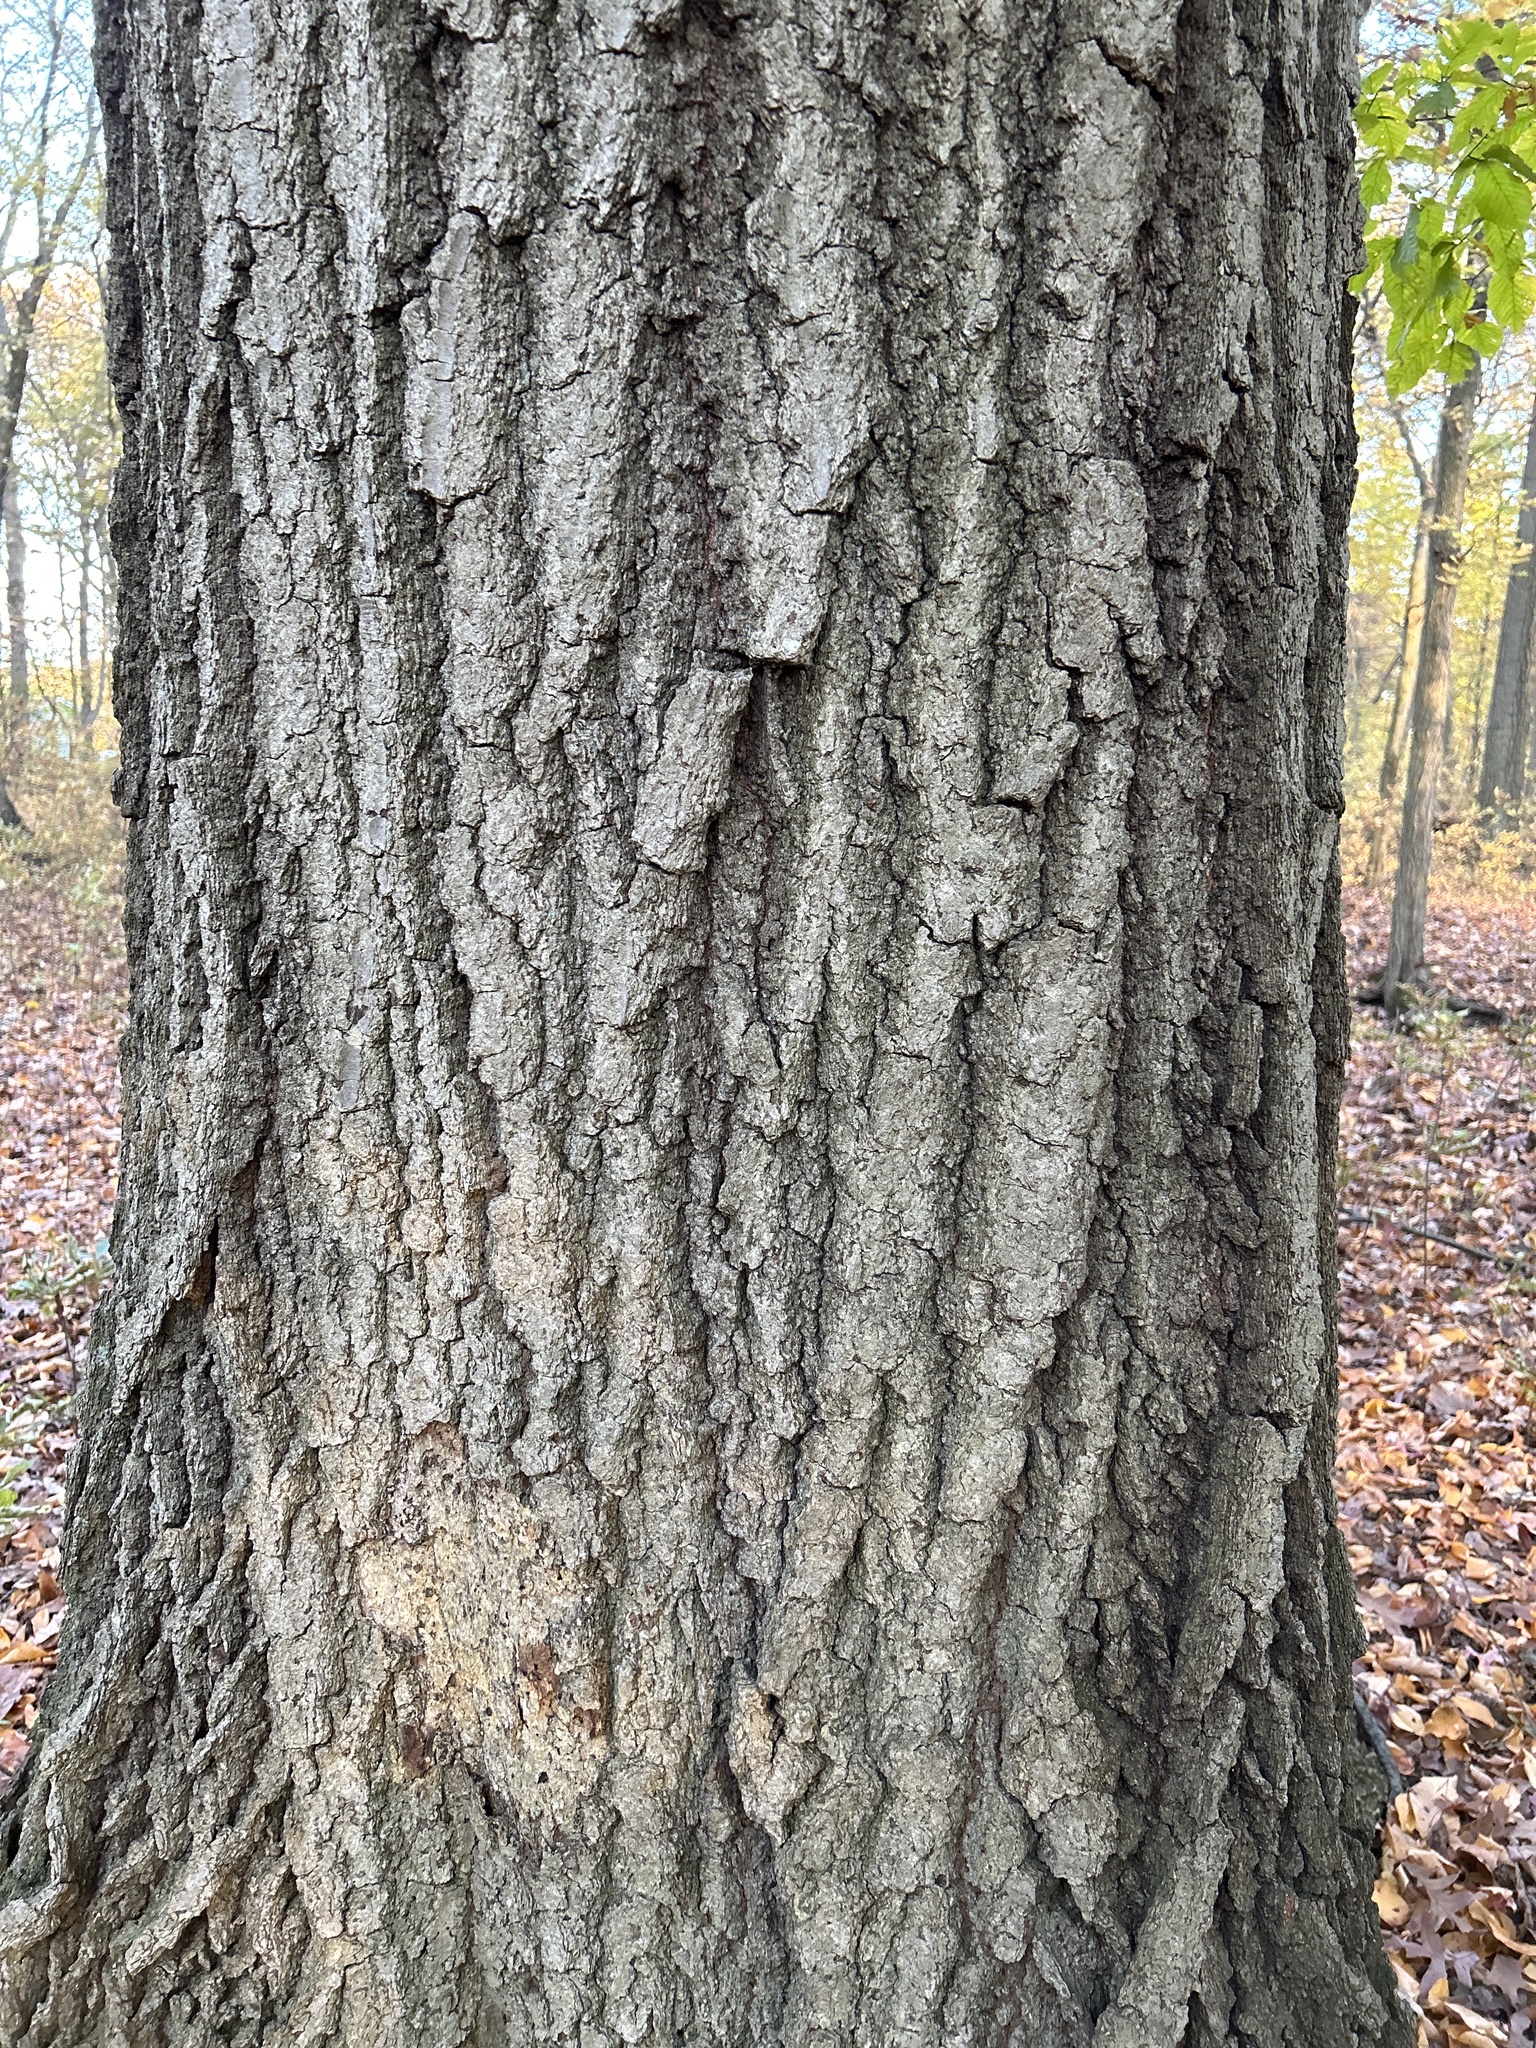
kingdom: Plantae
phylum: Tracheophyta
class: Magnoliopsida
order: Fagales
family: Fagaceae
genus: Quercus
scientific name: Quercus rubra
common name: Red oak
